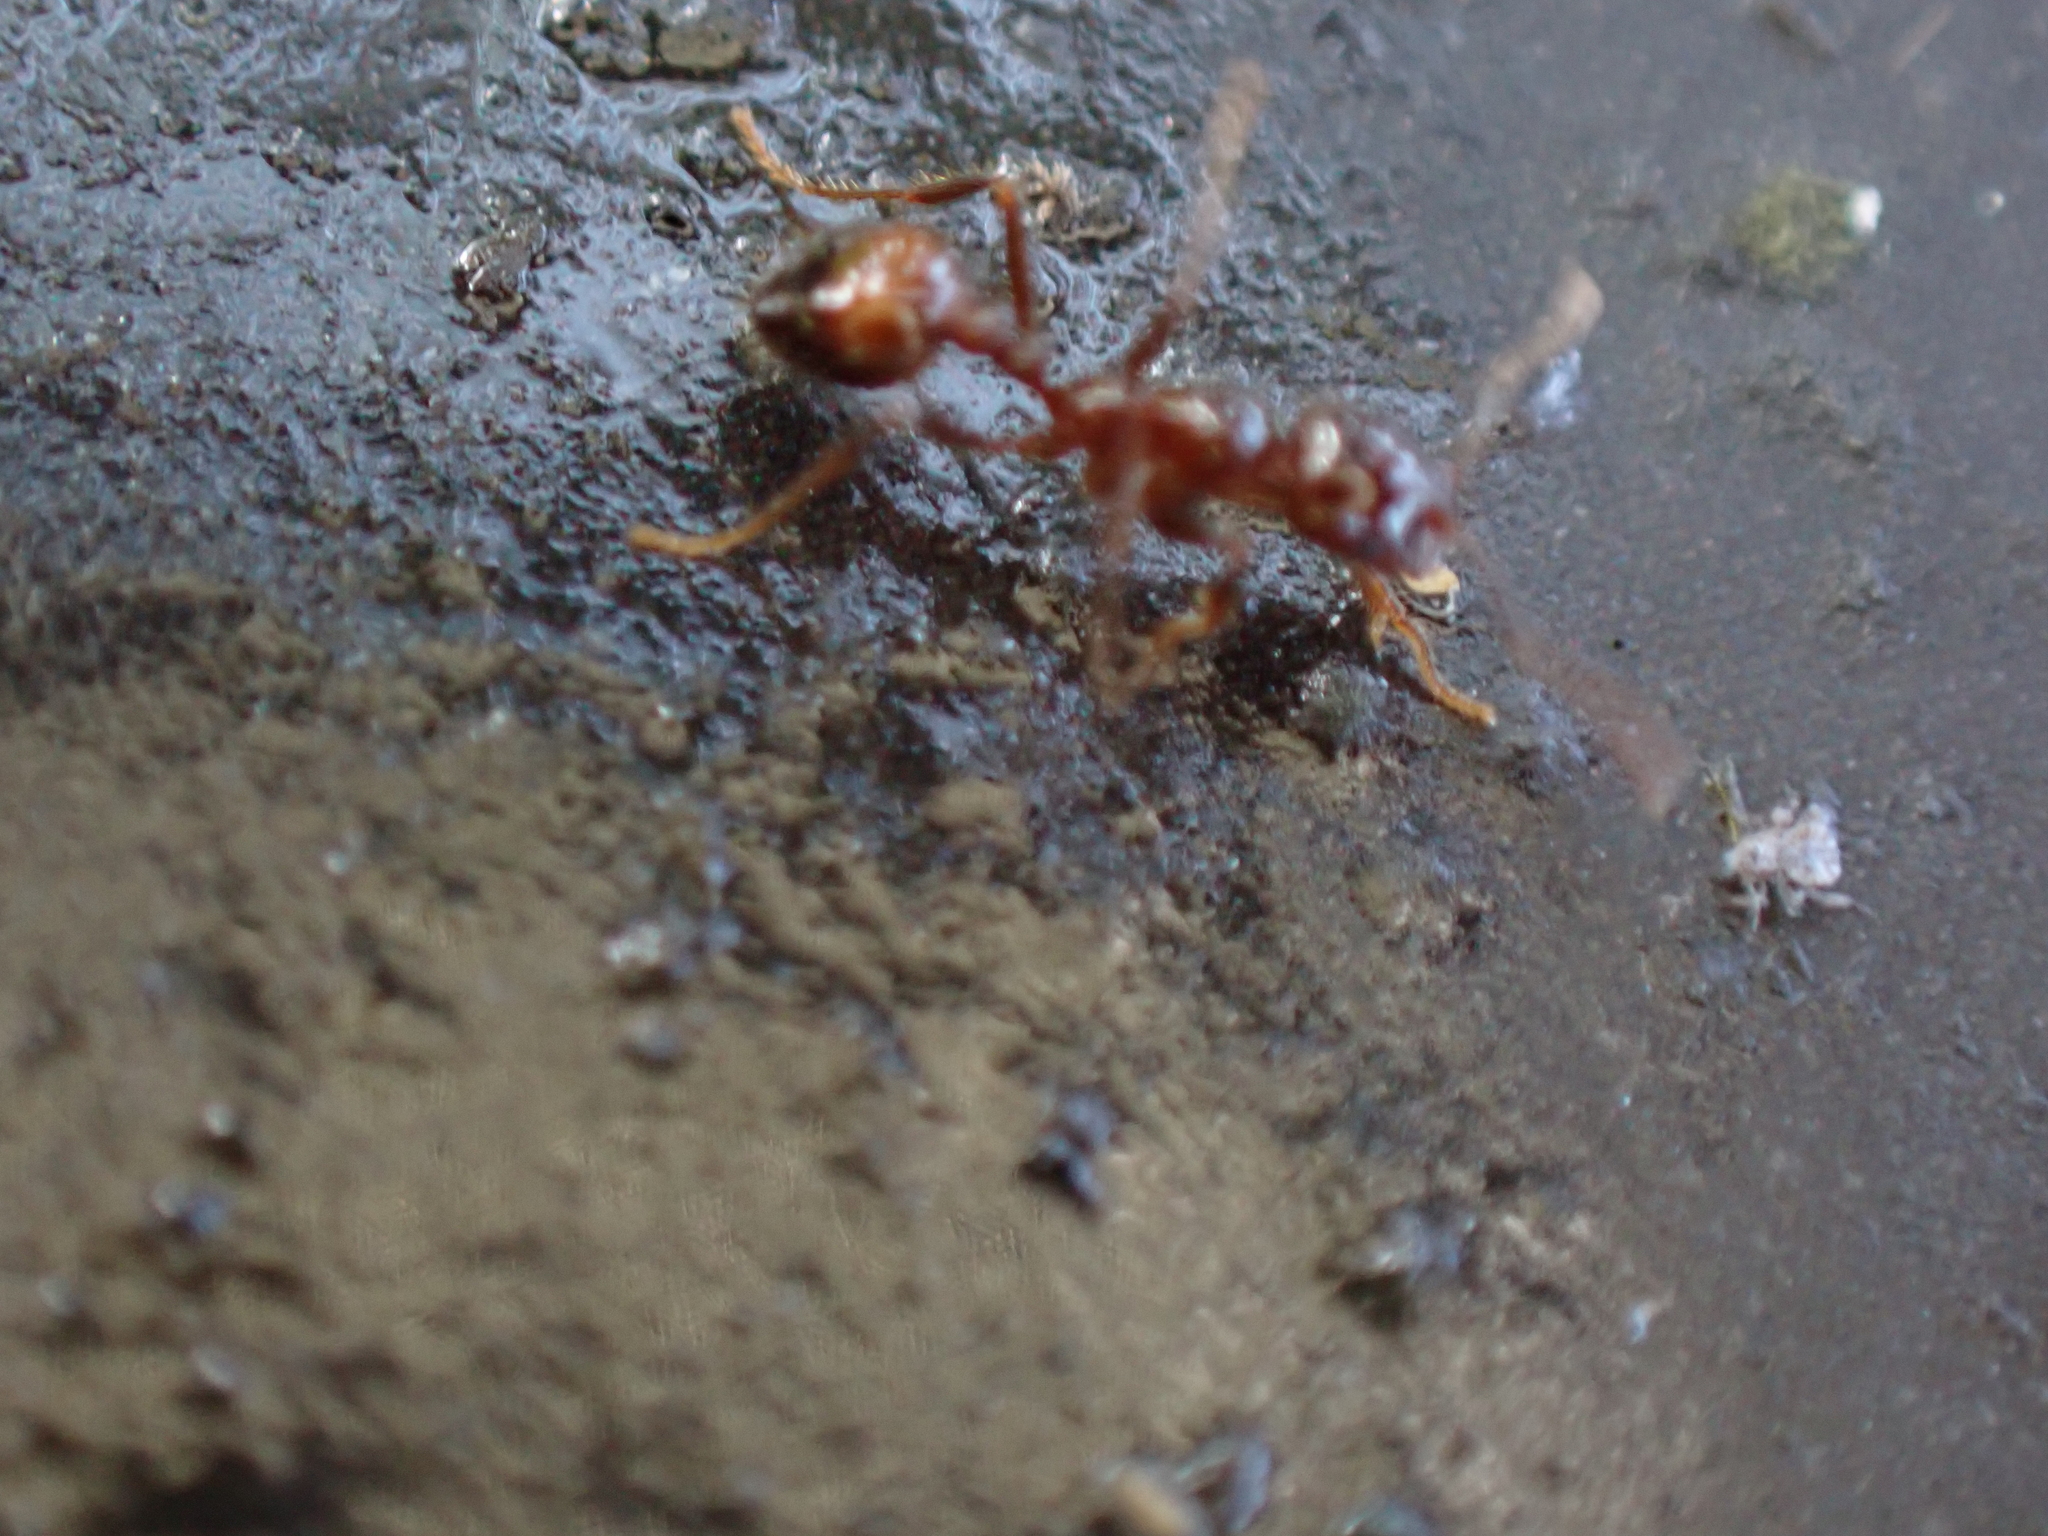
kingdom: Animalia
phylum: Arthropoda
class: Insecta
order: Hymenoptera
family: Formicidae
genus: Solenopsis
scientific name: Solenopsis
